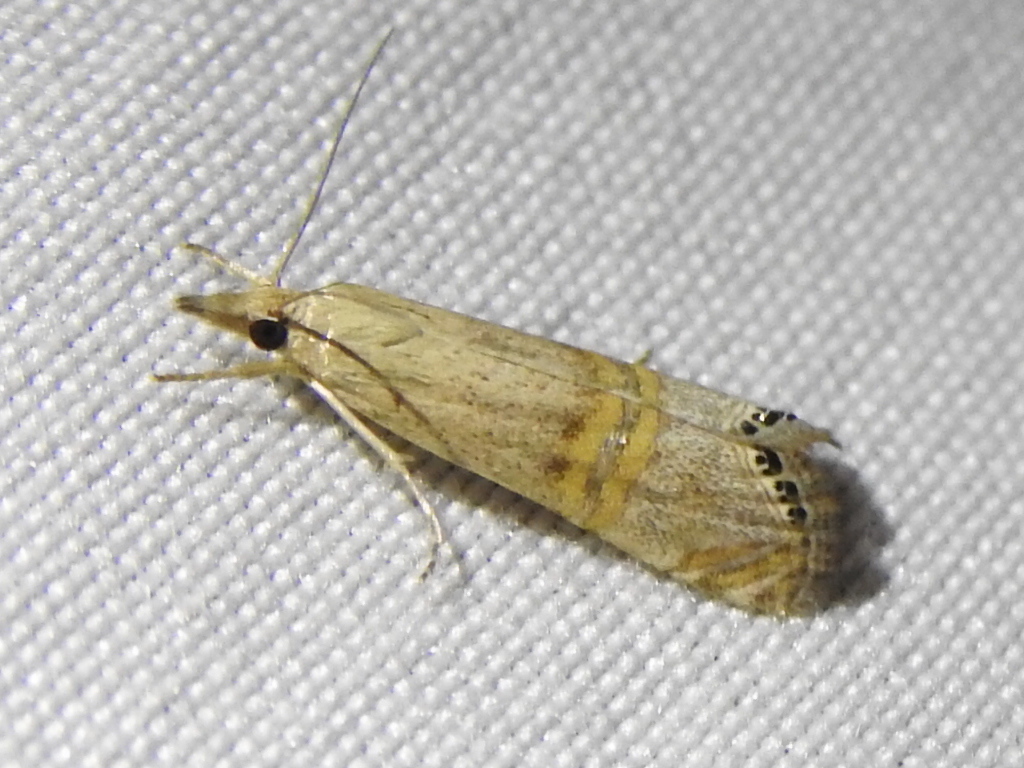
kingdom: Animalia
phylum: Arthropoda
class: Insecta
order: Lepidoptera
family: Crambidae
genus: Euchromius
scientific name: Euchromius ocellea
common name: Necklace veneer moth
